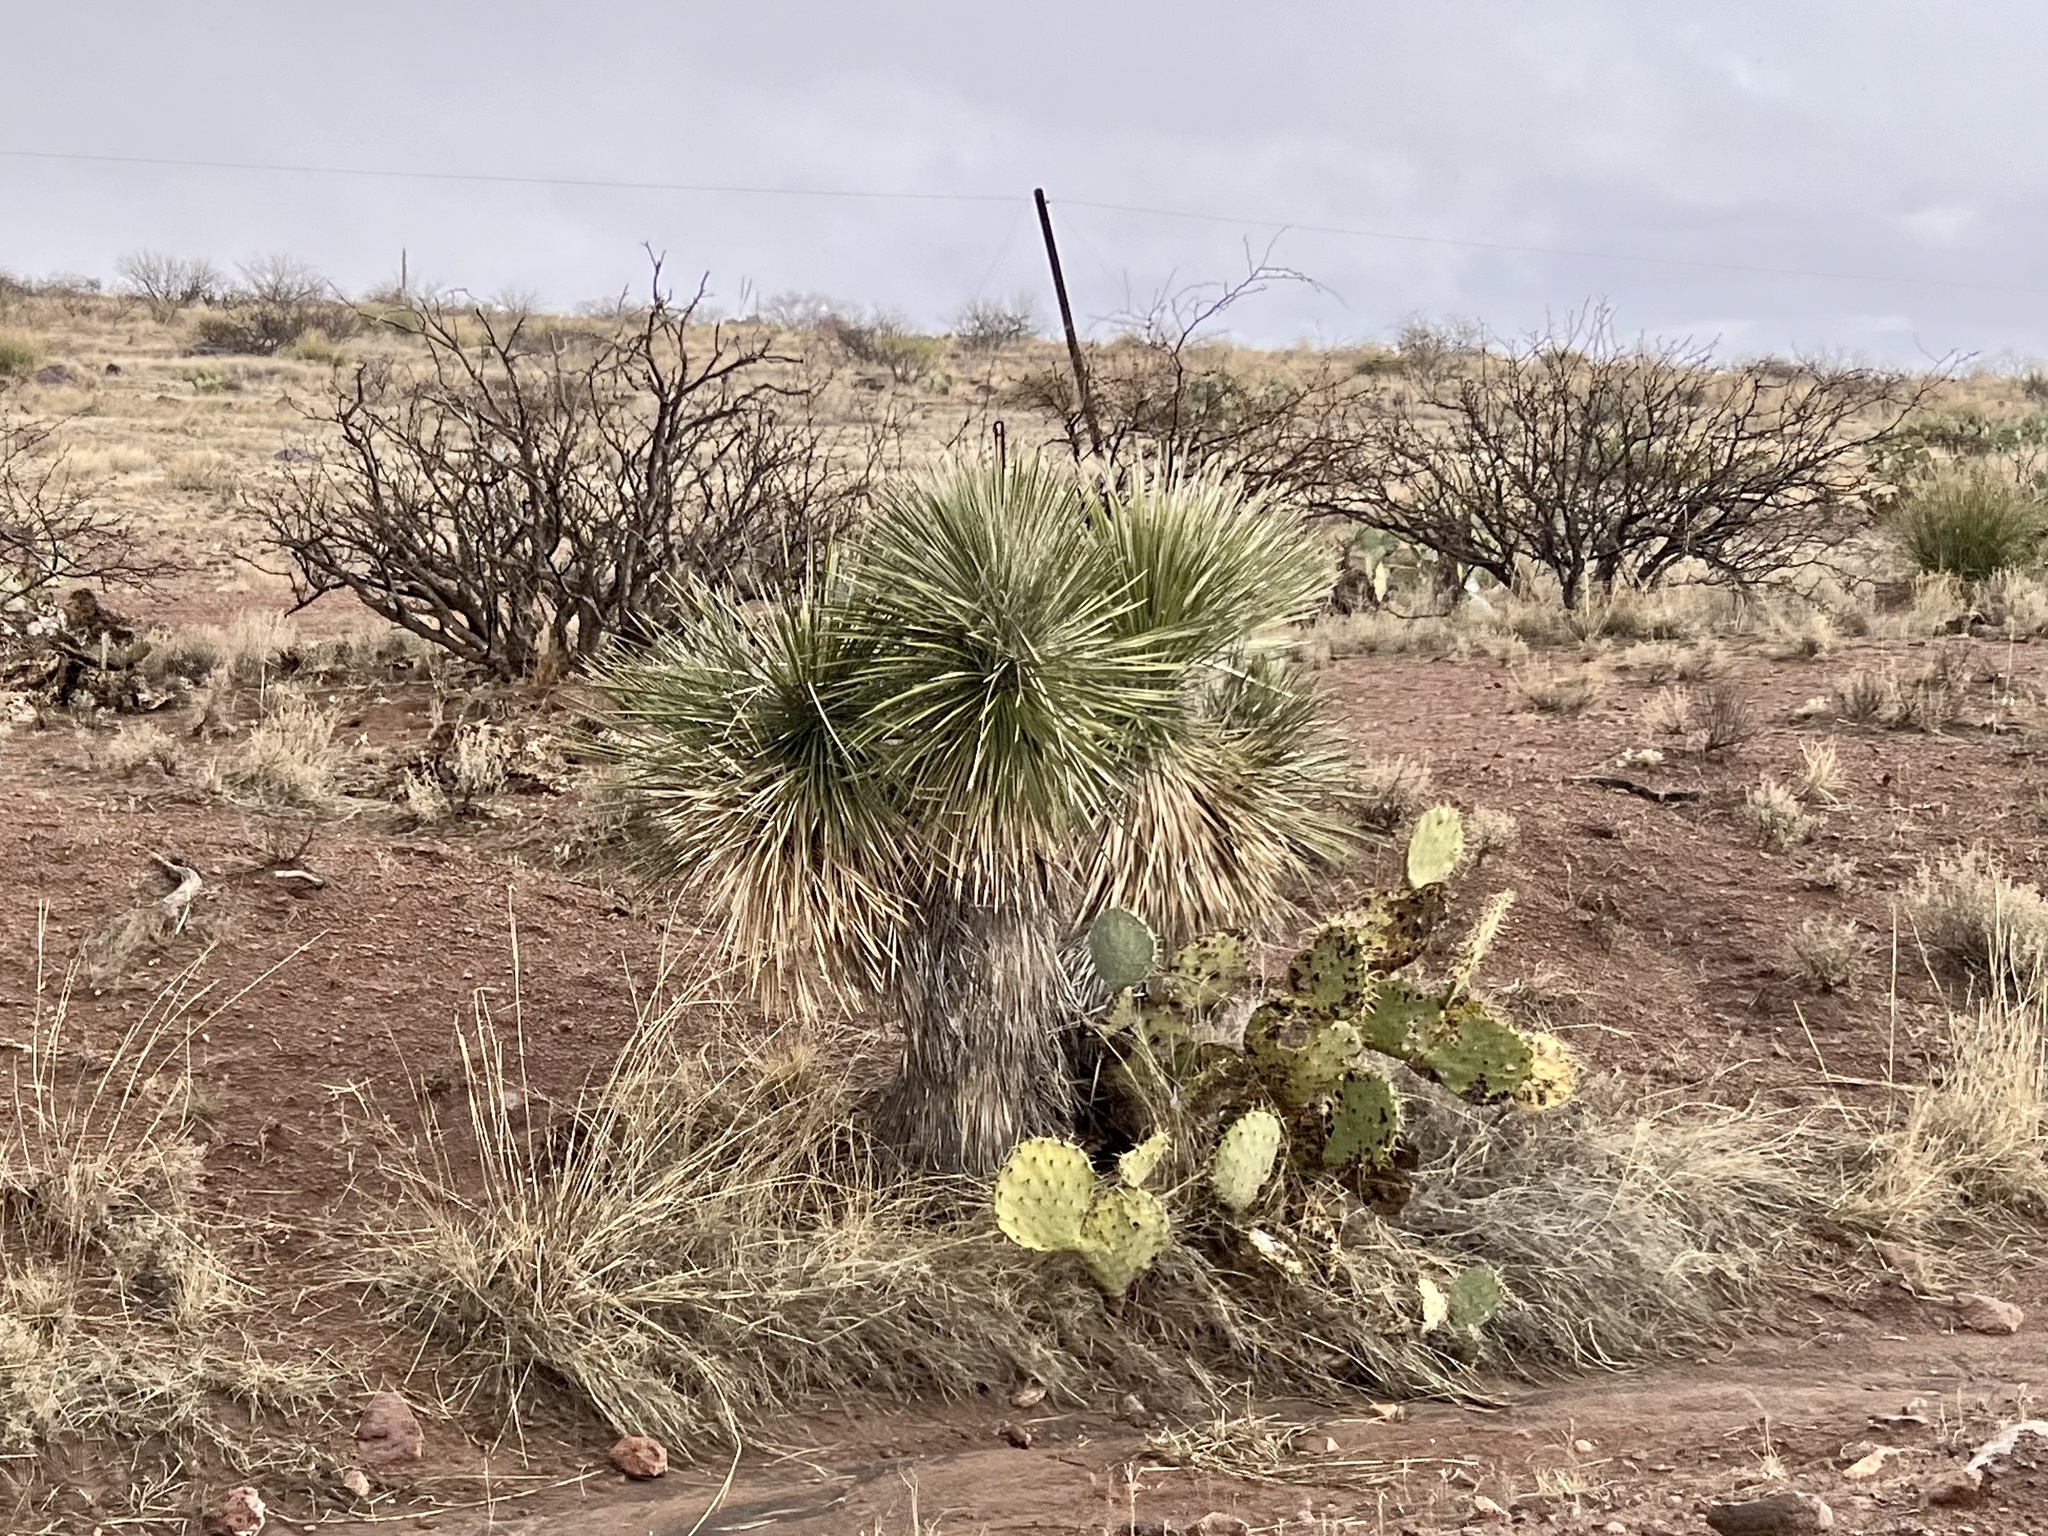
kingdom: Plantae
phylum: Tracheophyta
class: Liliopsida
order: Asparagales
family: Asparagaceae
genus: Yucca
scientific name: Yucca elata
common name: Palmella
